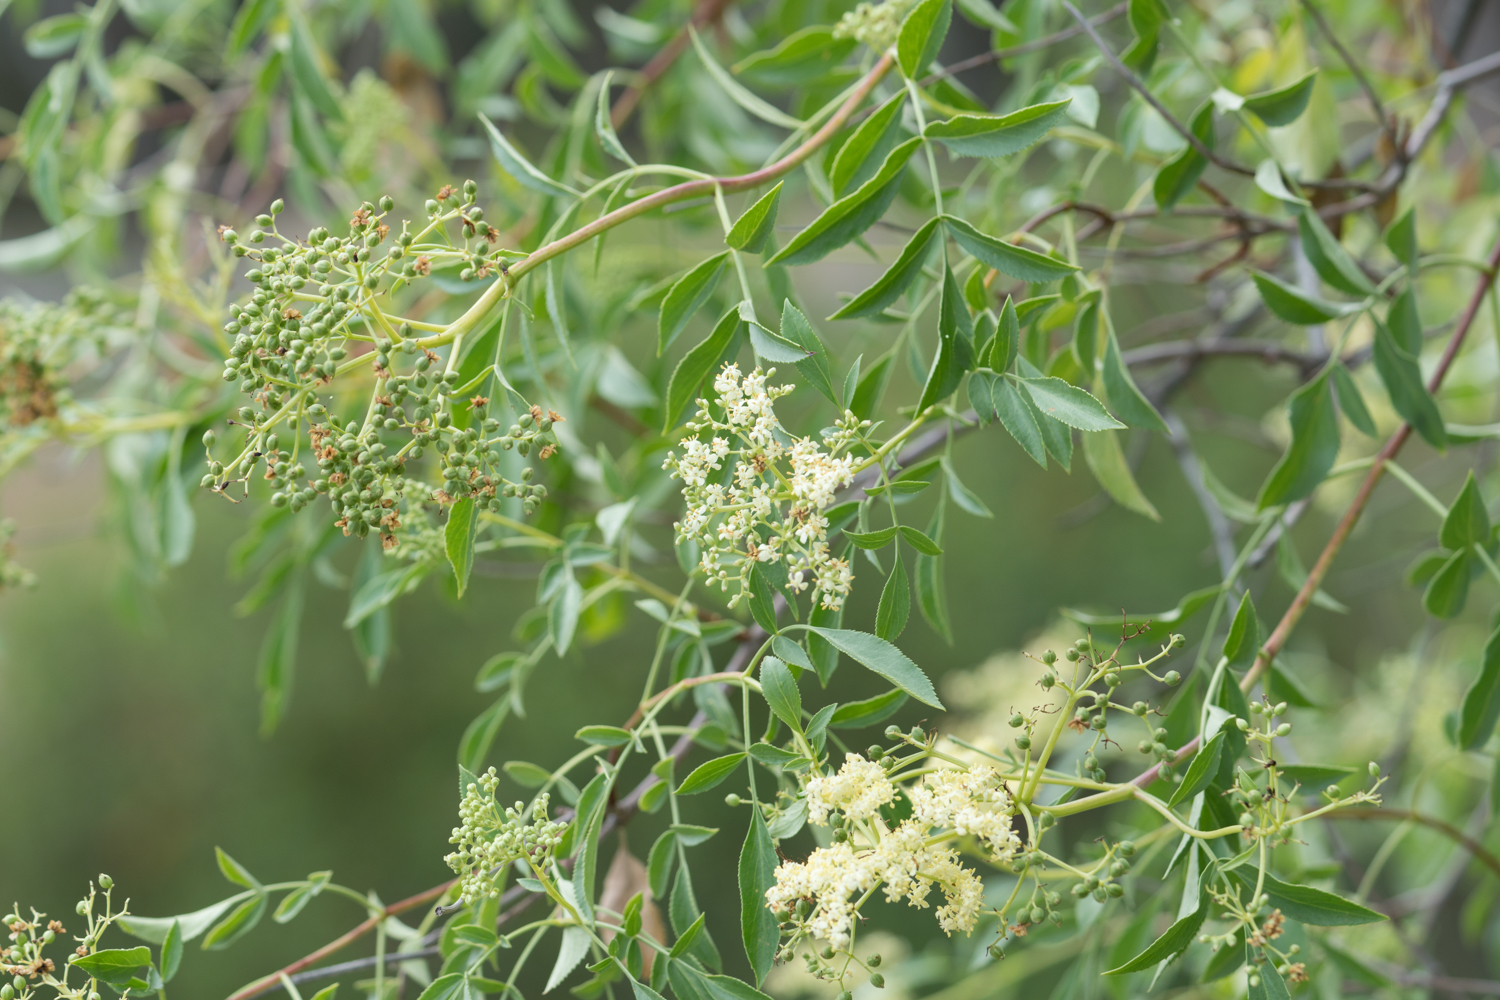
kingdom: Plantae
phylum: Tracheophyta
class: Magnoliopsida
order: Dipsacales
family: Viburnaceae
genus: Sambucus
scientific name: Sambucus cerulea
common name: Blue elder
